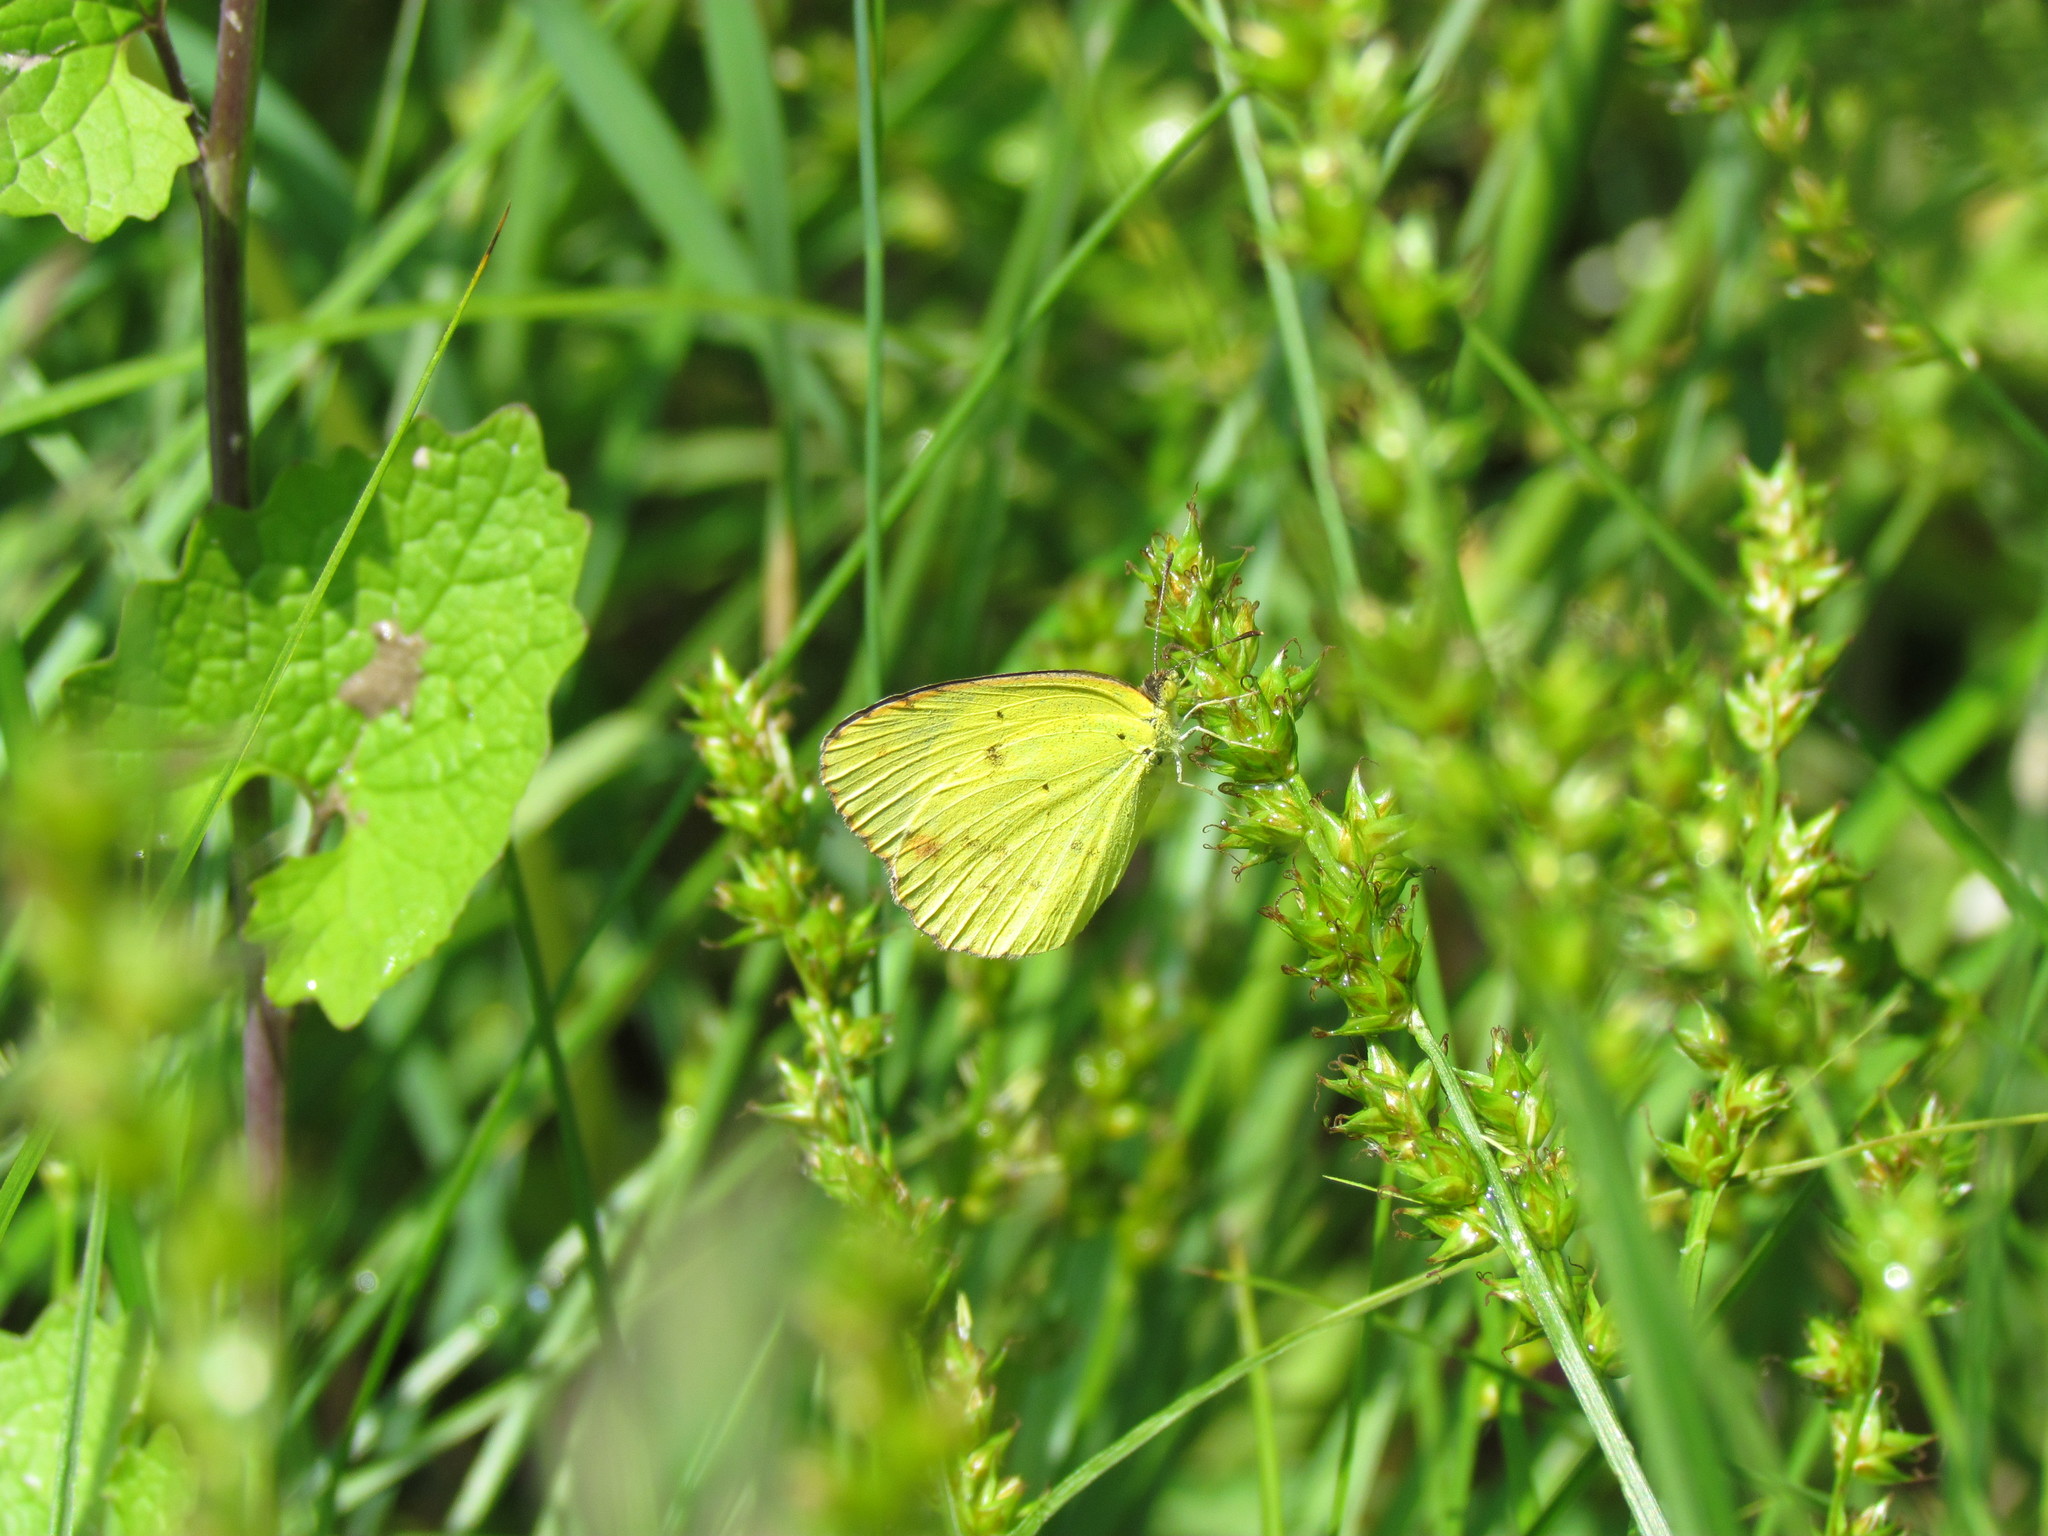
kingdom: Animalia
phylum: Arthropoda
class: Insecta
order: Lepidoptera
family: Pieridae
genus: Pyrisitia
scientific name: Pyrisitia lisa
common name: Little yellow
